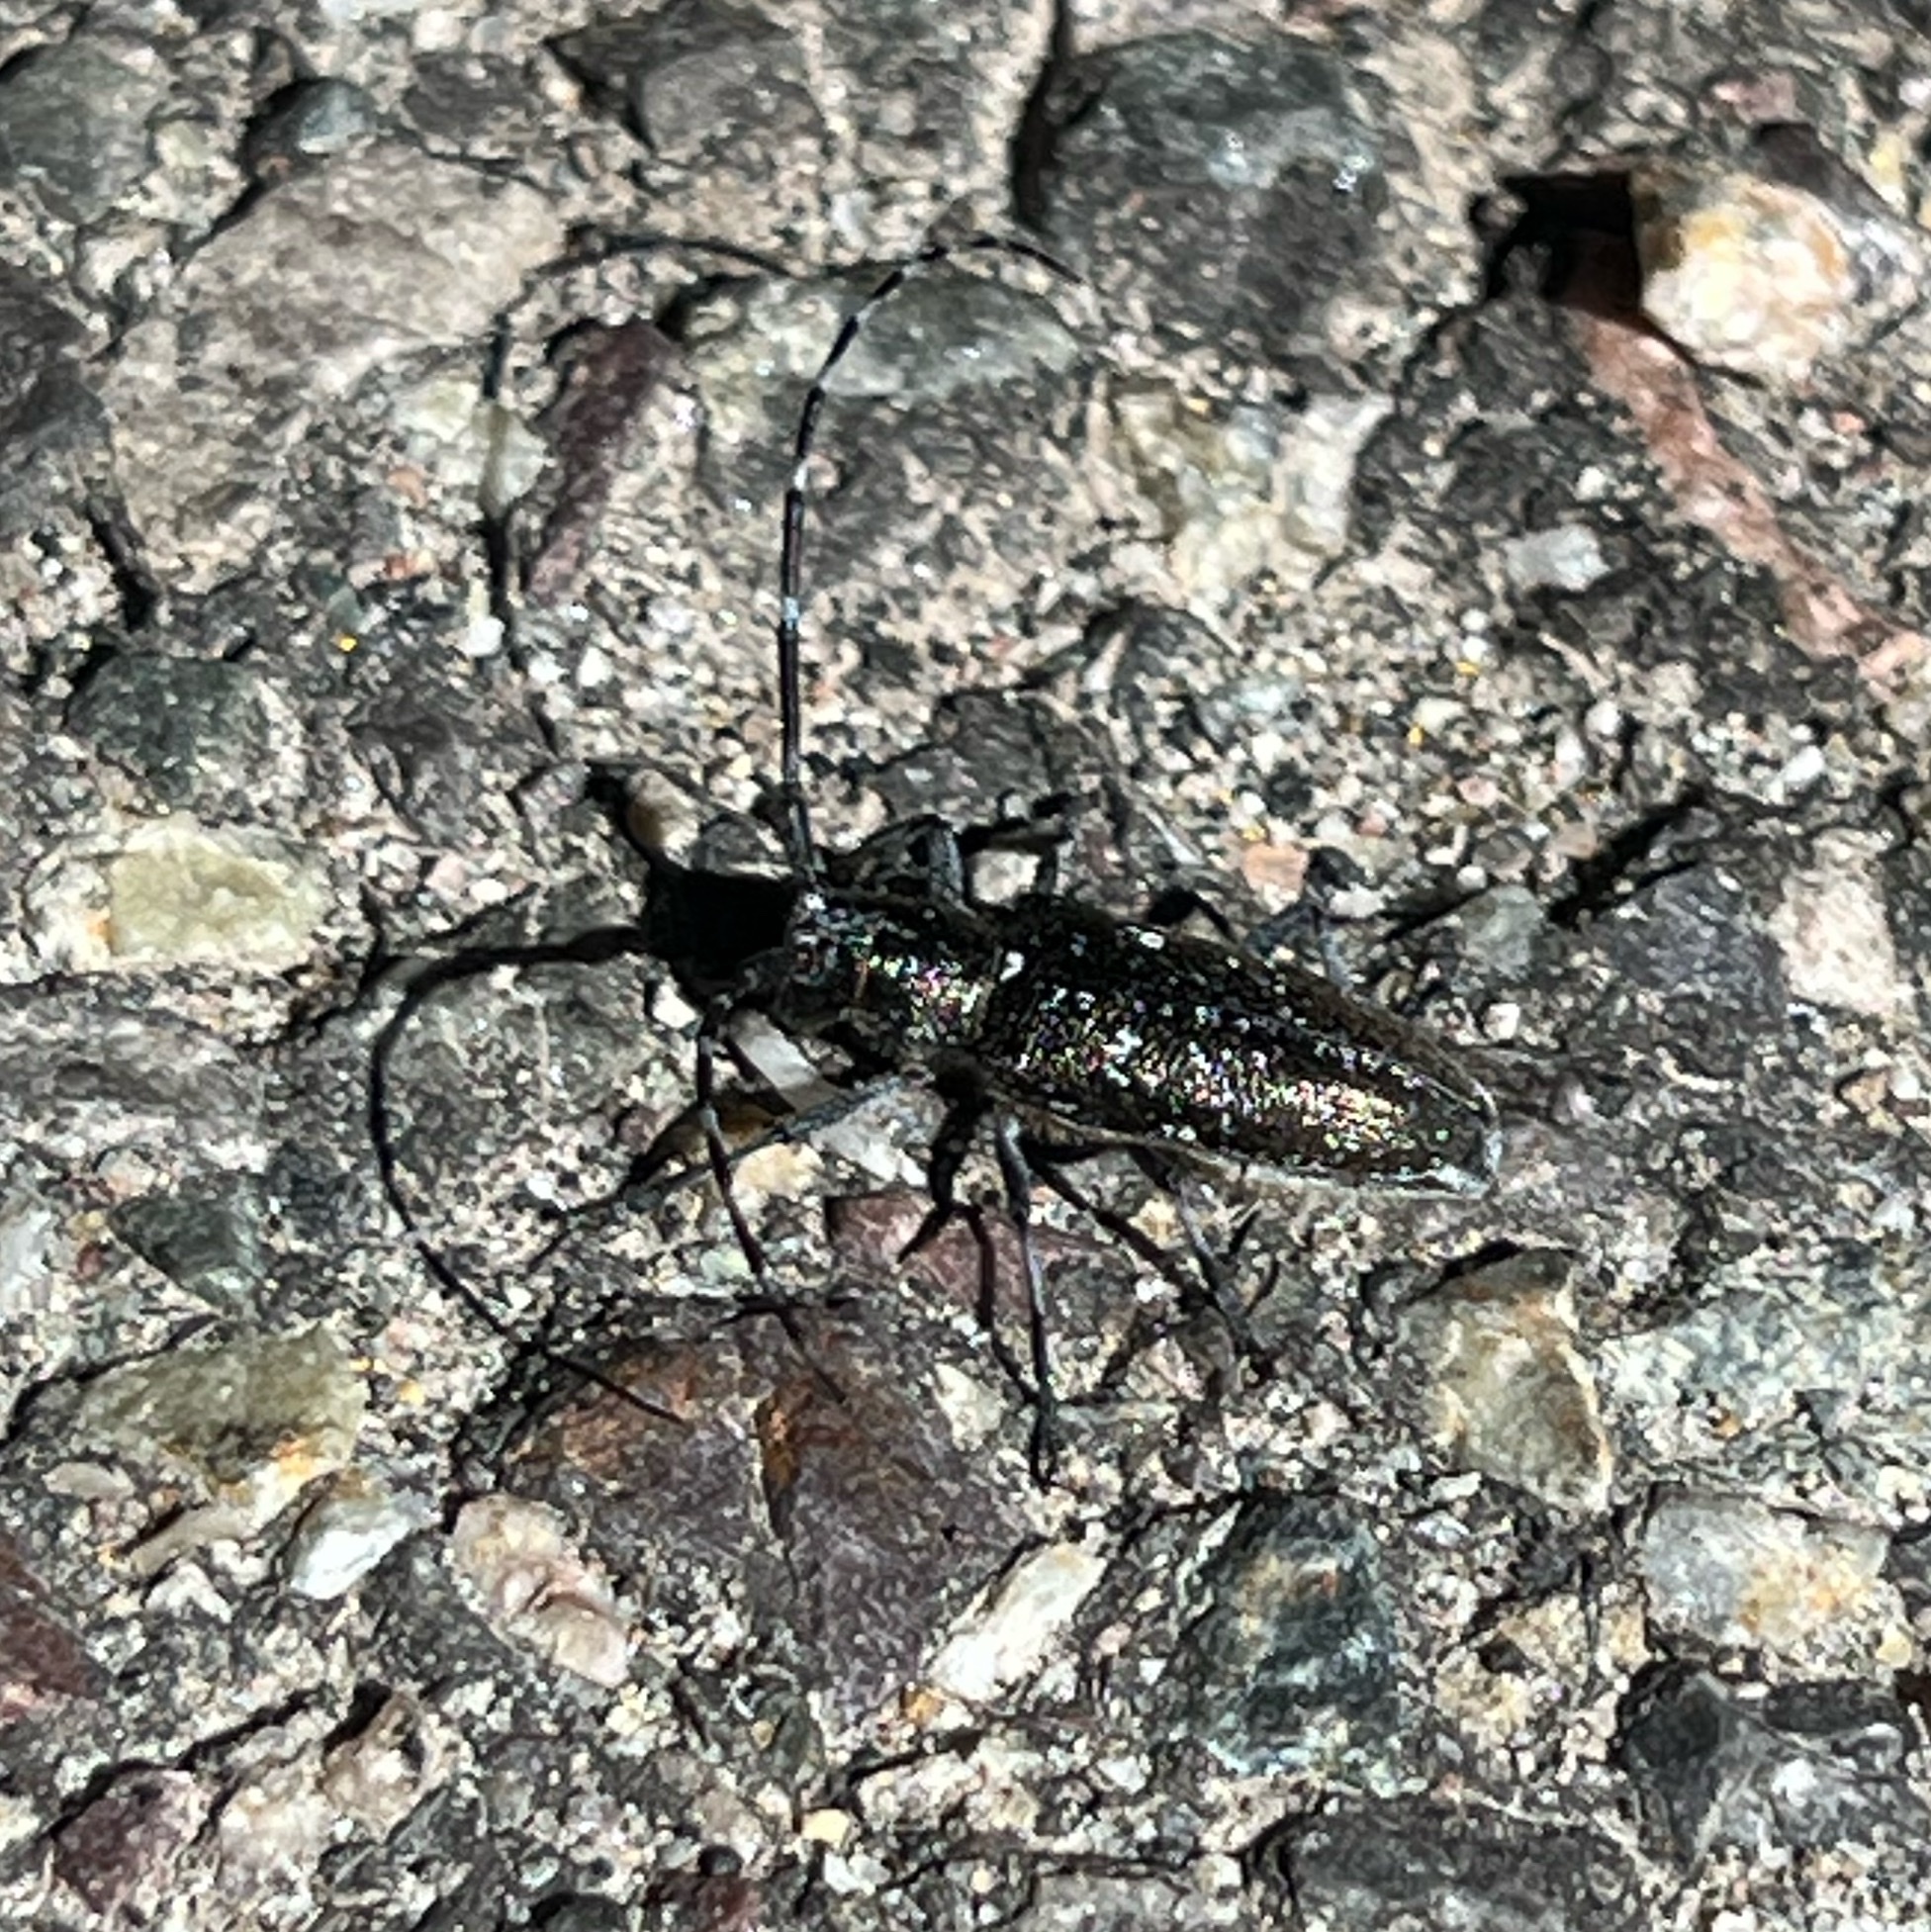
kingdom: Animalia
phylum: Arthropoda
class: Insecta
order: Coleoptera
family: Cerambycidae
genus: Monochamus
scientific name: Monochamus scutellatus
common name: White-spotted sawyer beetle
